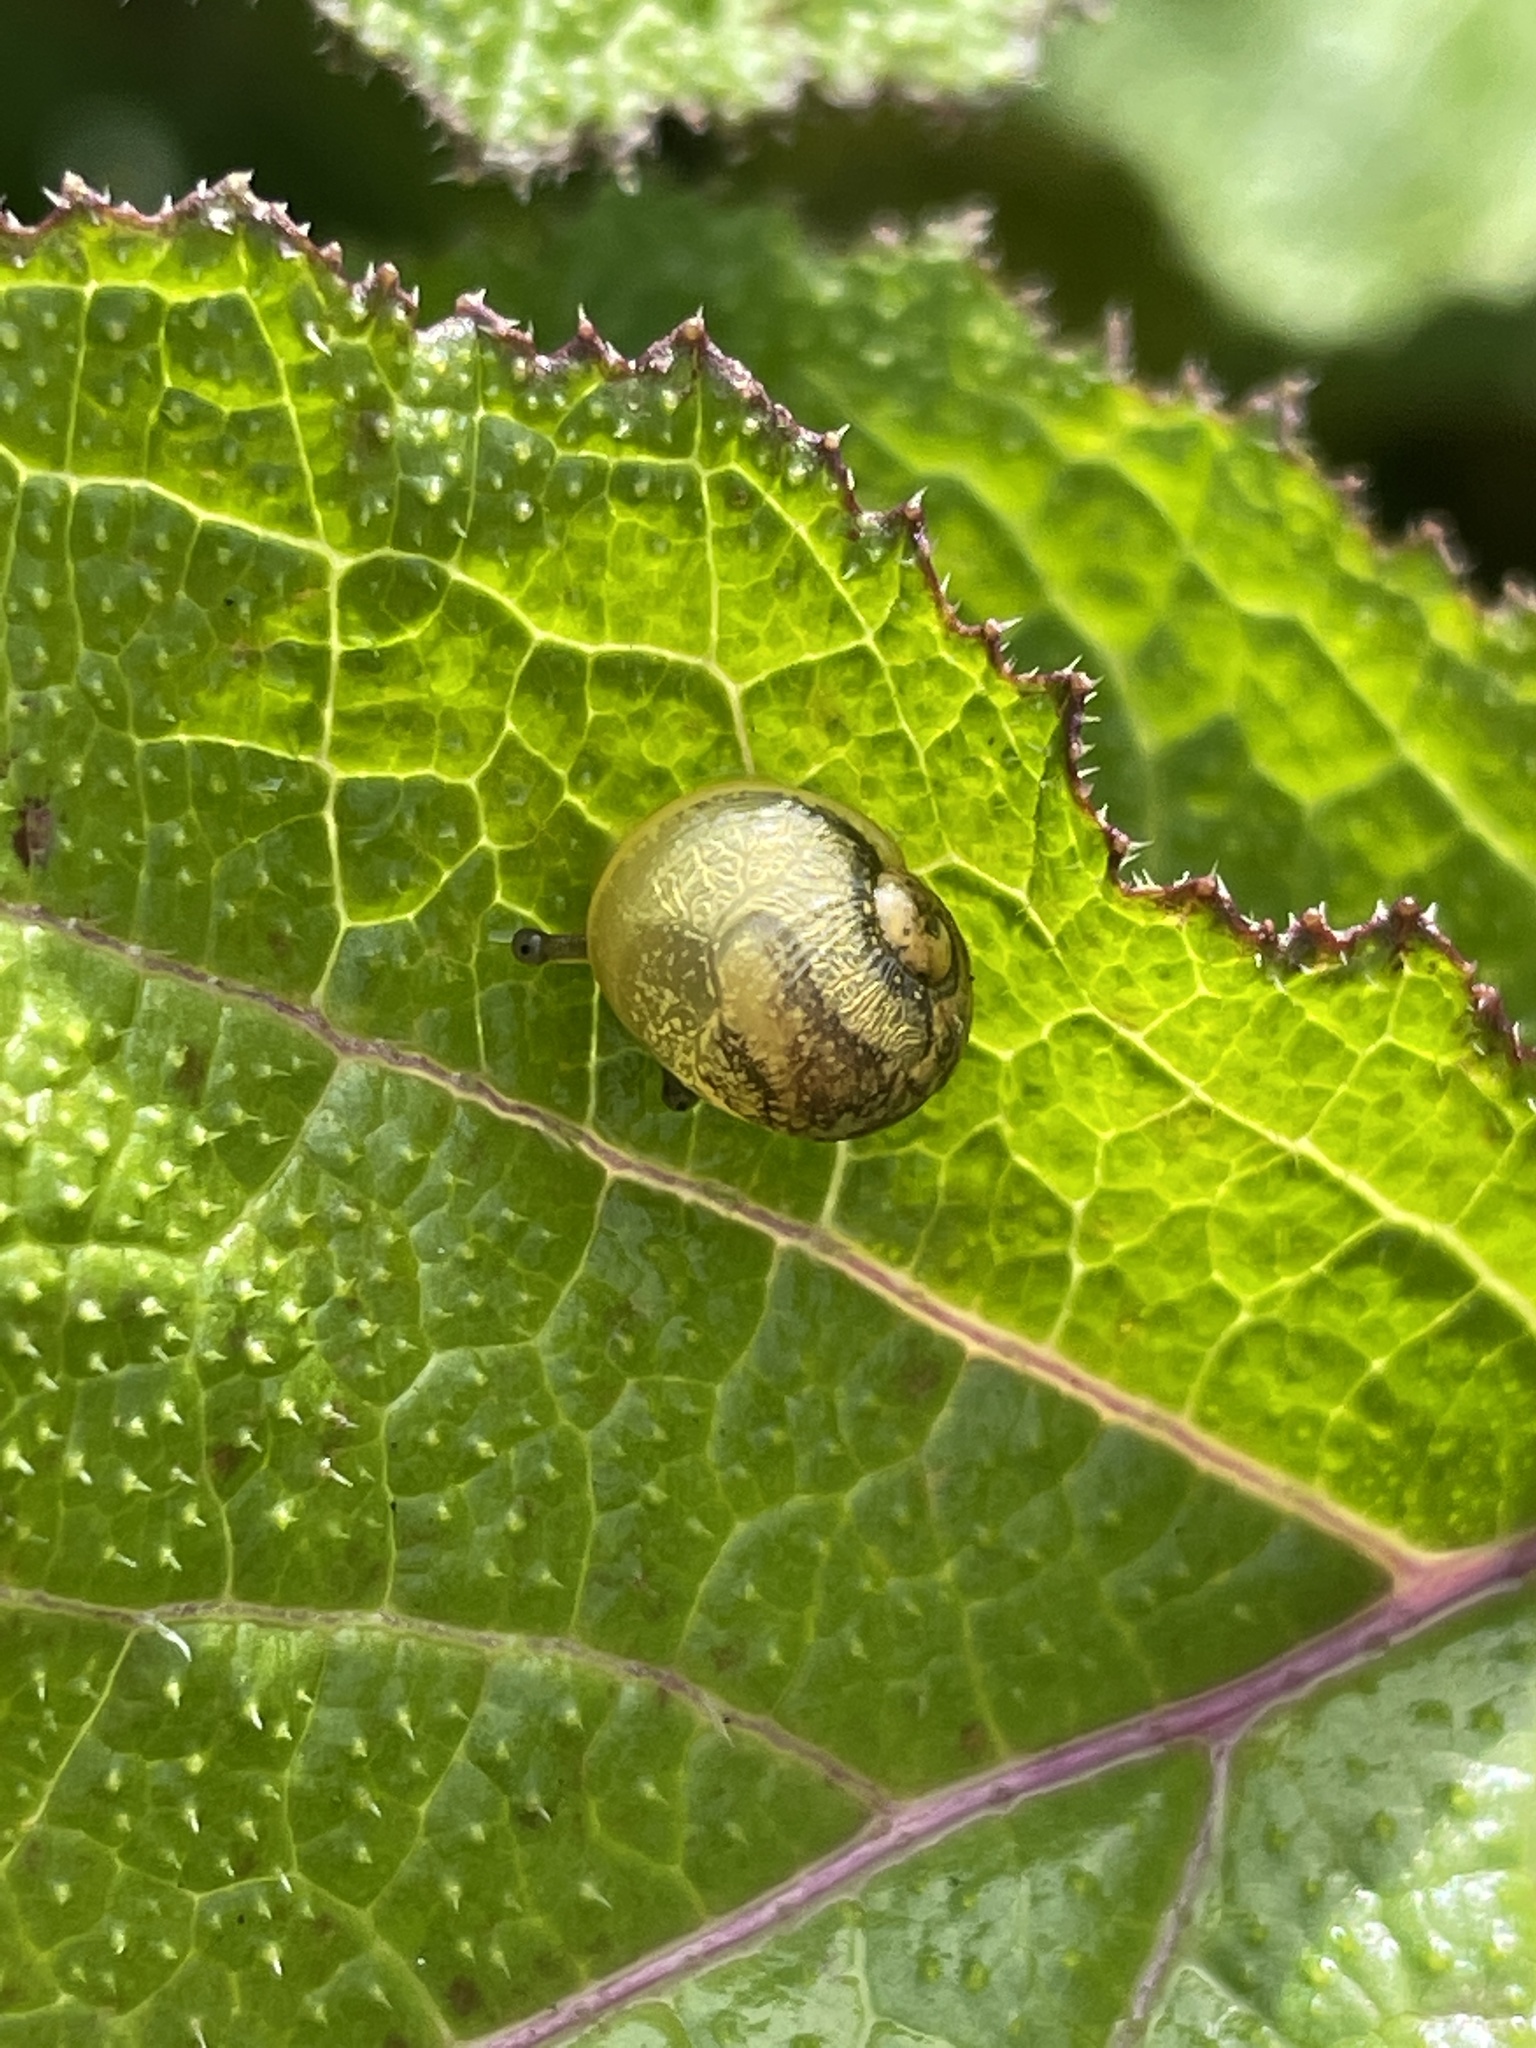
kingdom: Animalia
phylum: Mollusca
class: Gastropoda
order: Stylommatophora
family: Helicidae
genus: Cantareus
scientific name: Cantareus apertus
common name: Green gardensnail
